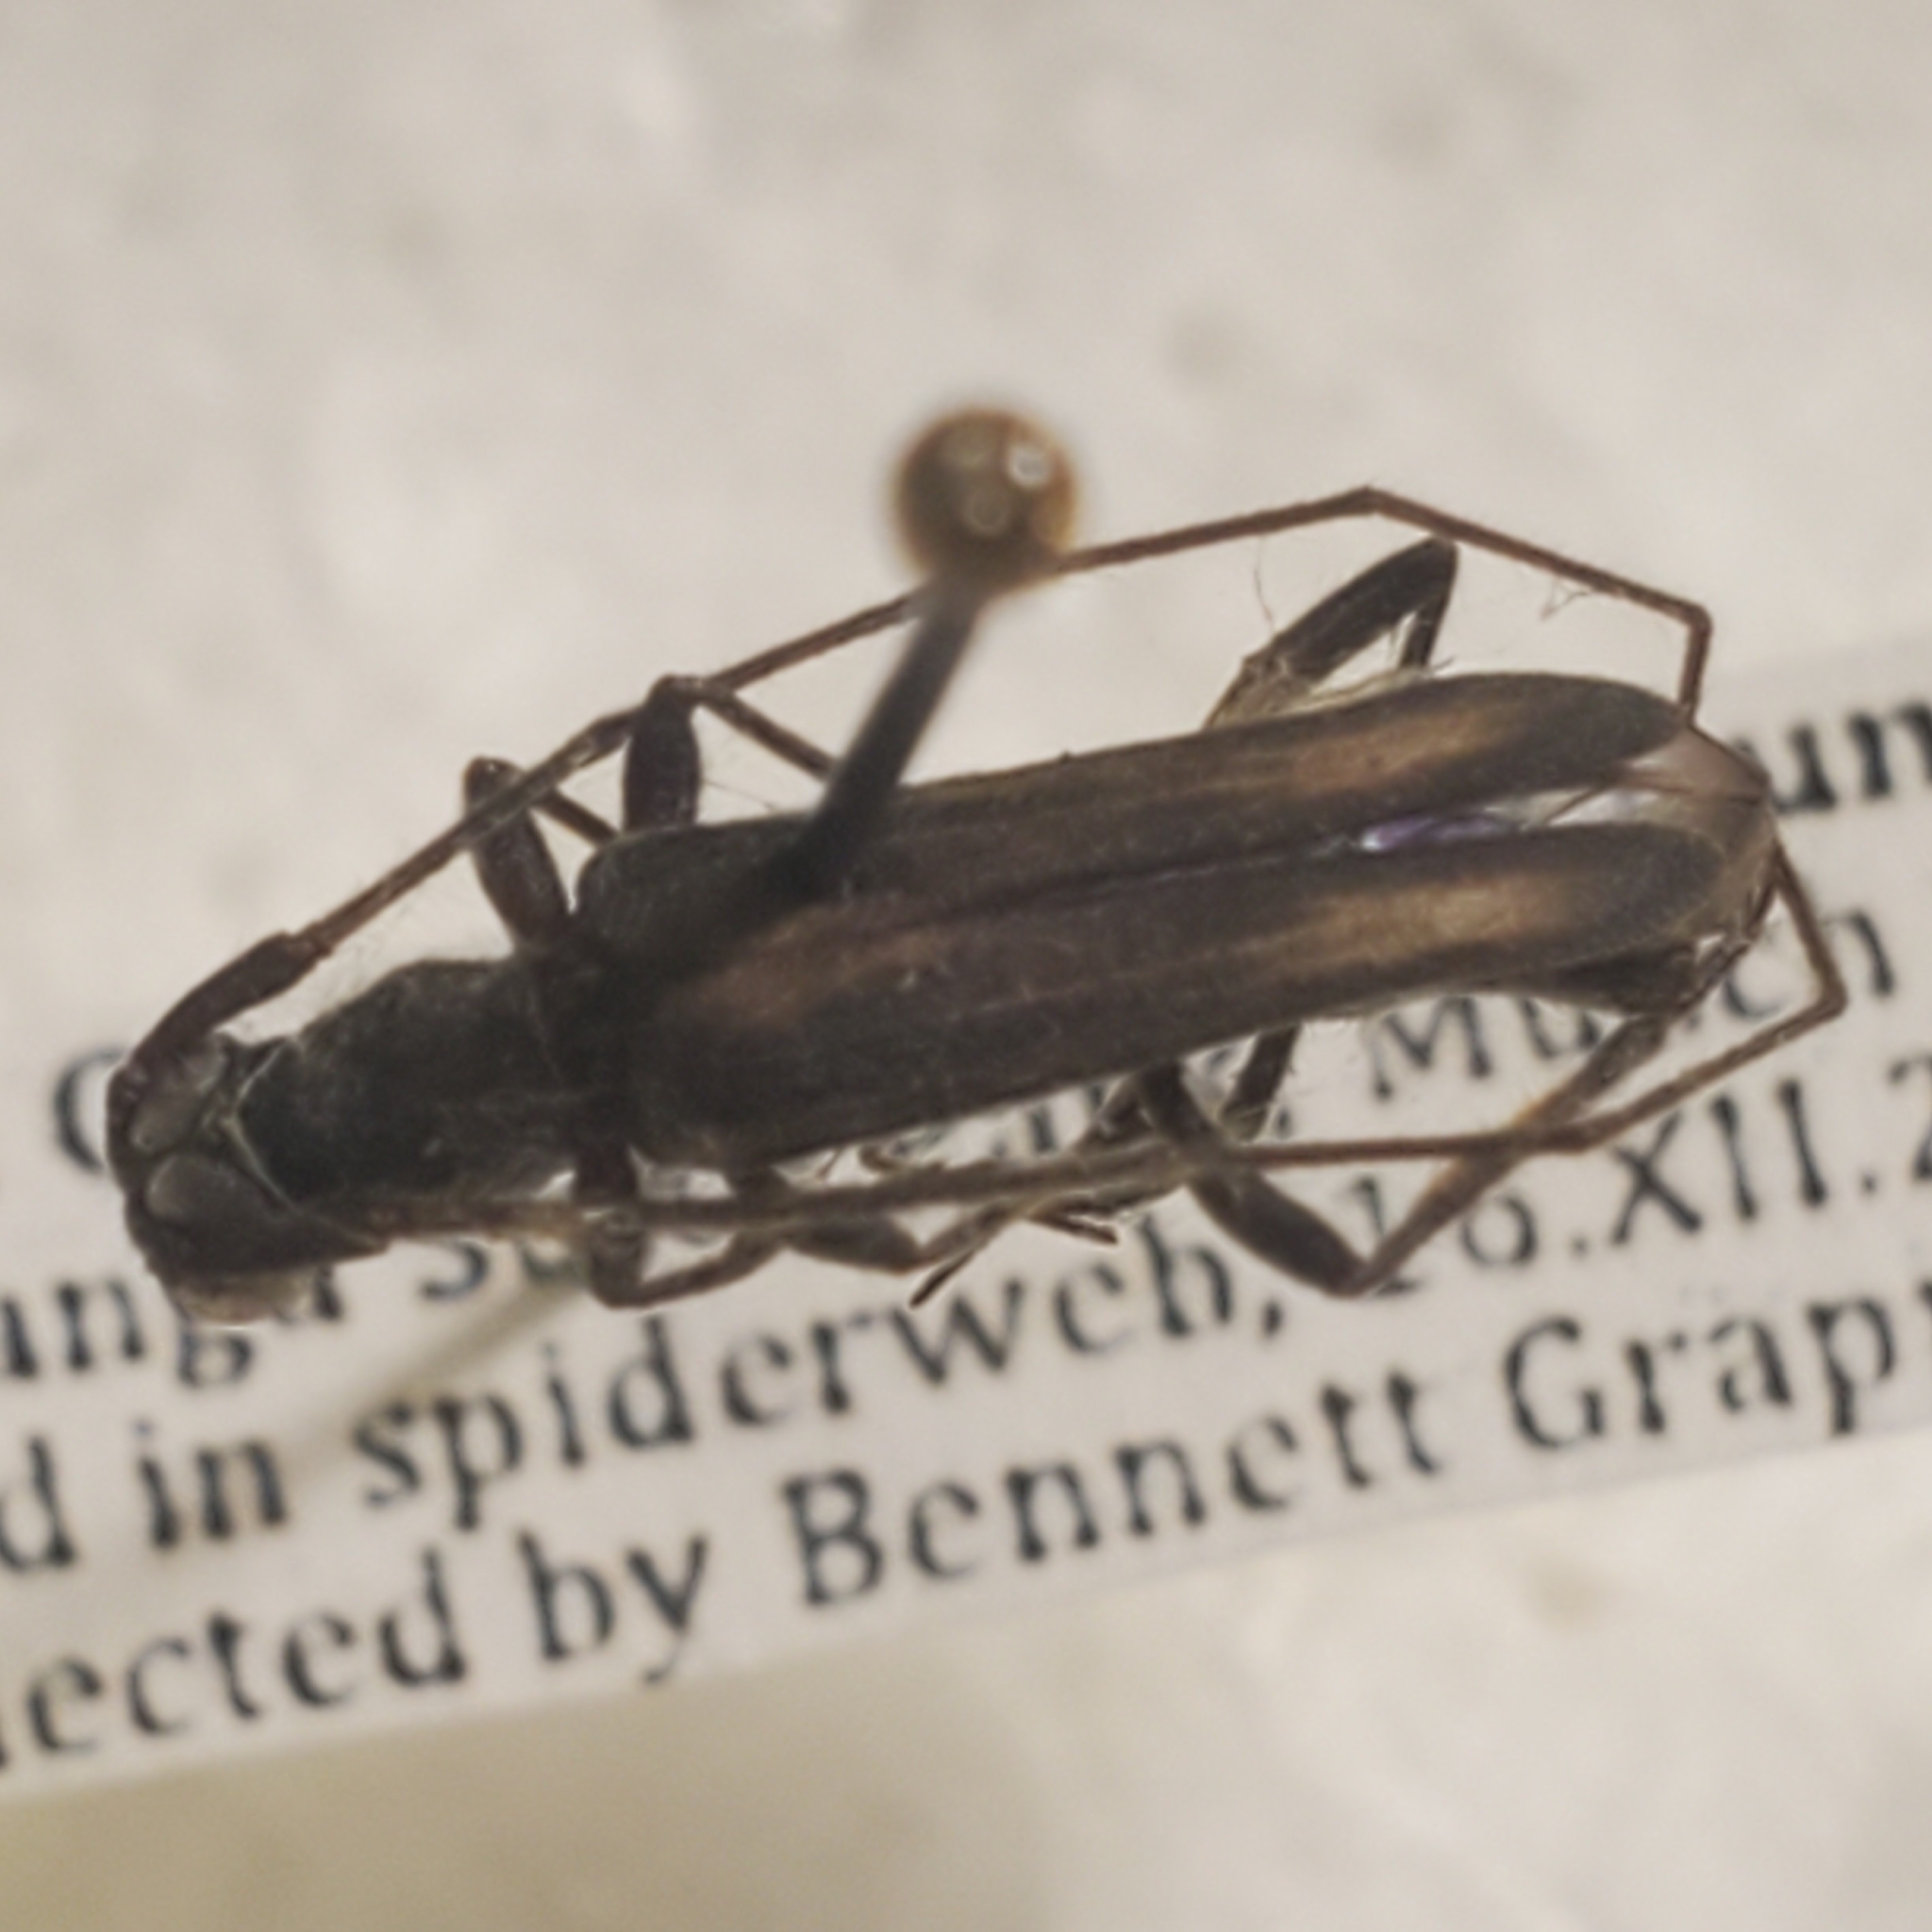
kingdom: Animalia
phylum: Arthropoda
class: Insecta
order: Coleoptera
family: Cerambycidae
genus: Styloxus
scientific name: Styloxus fulleri
